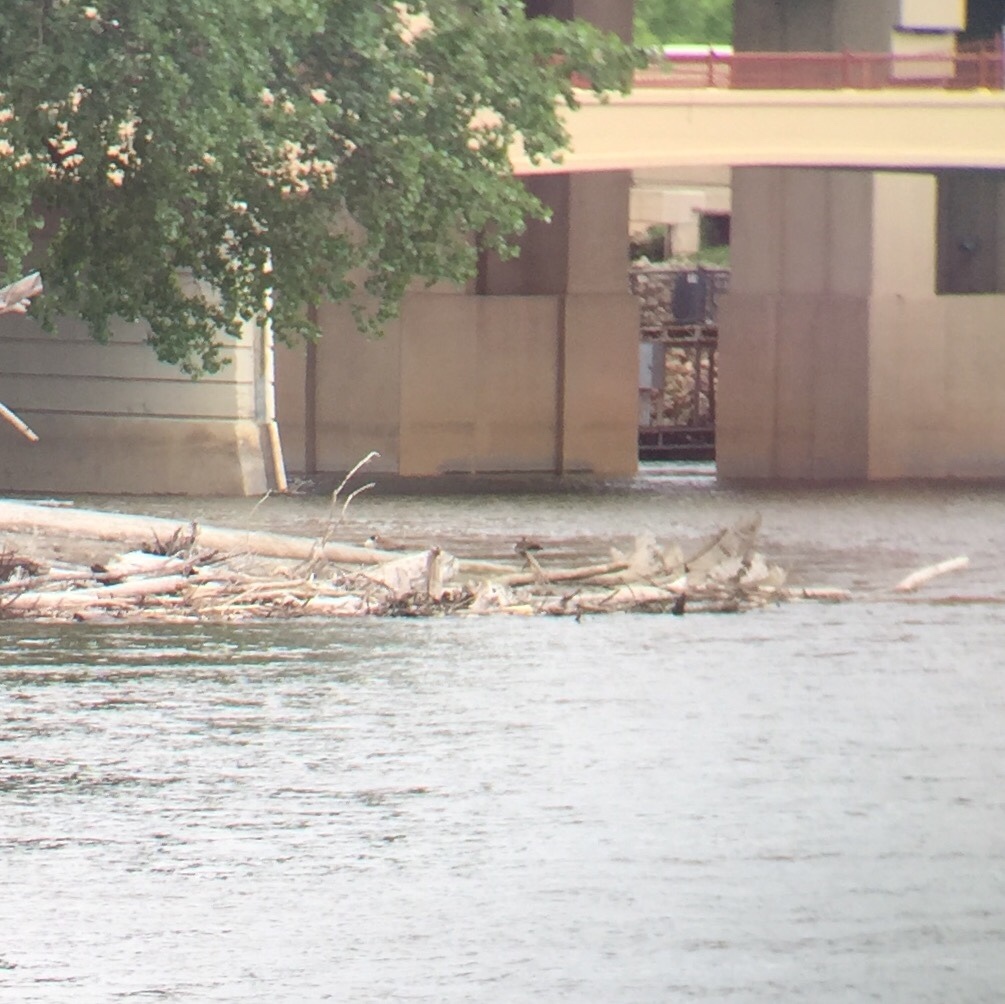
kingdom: Animalia
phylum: Chordata
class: Aves
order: Anseriformes
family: Anatidae
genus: Branta
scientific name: Branta canadensis
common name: Canada goose
